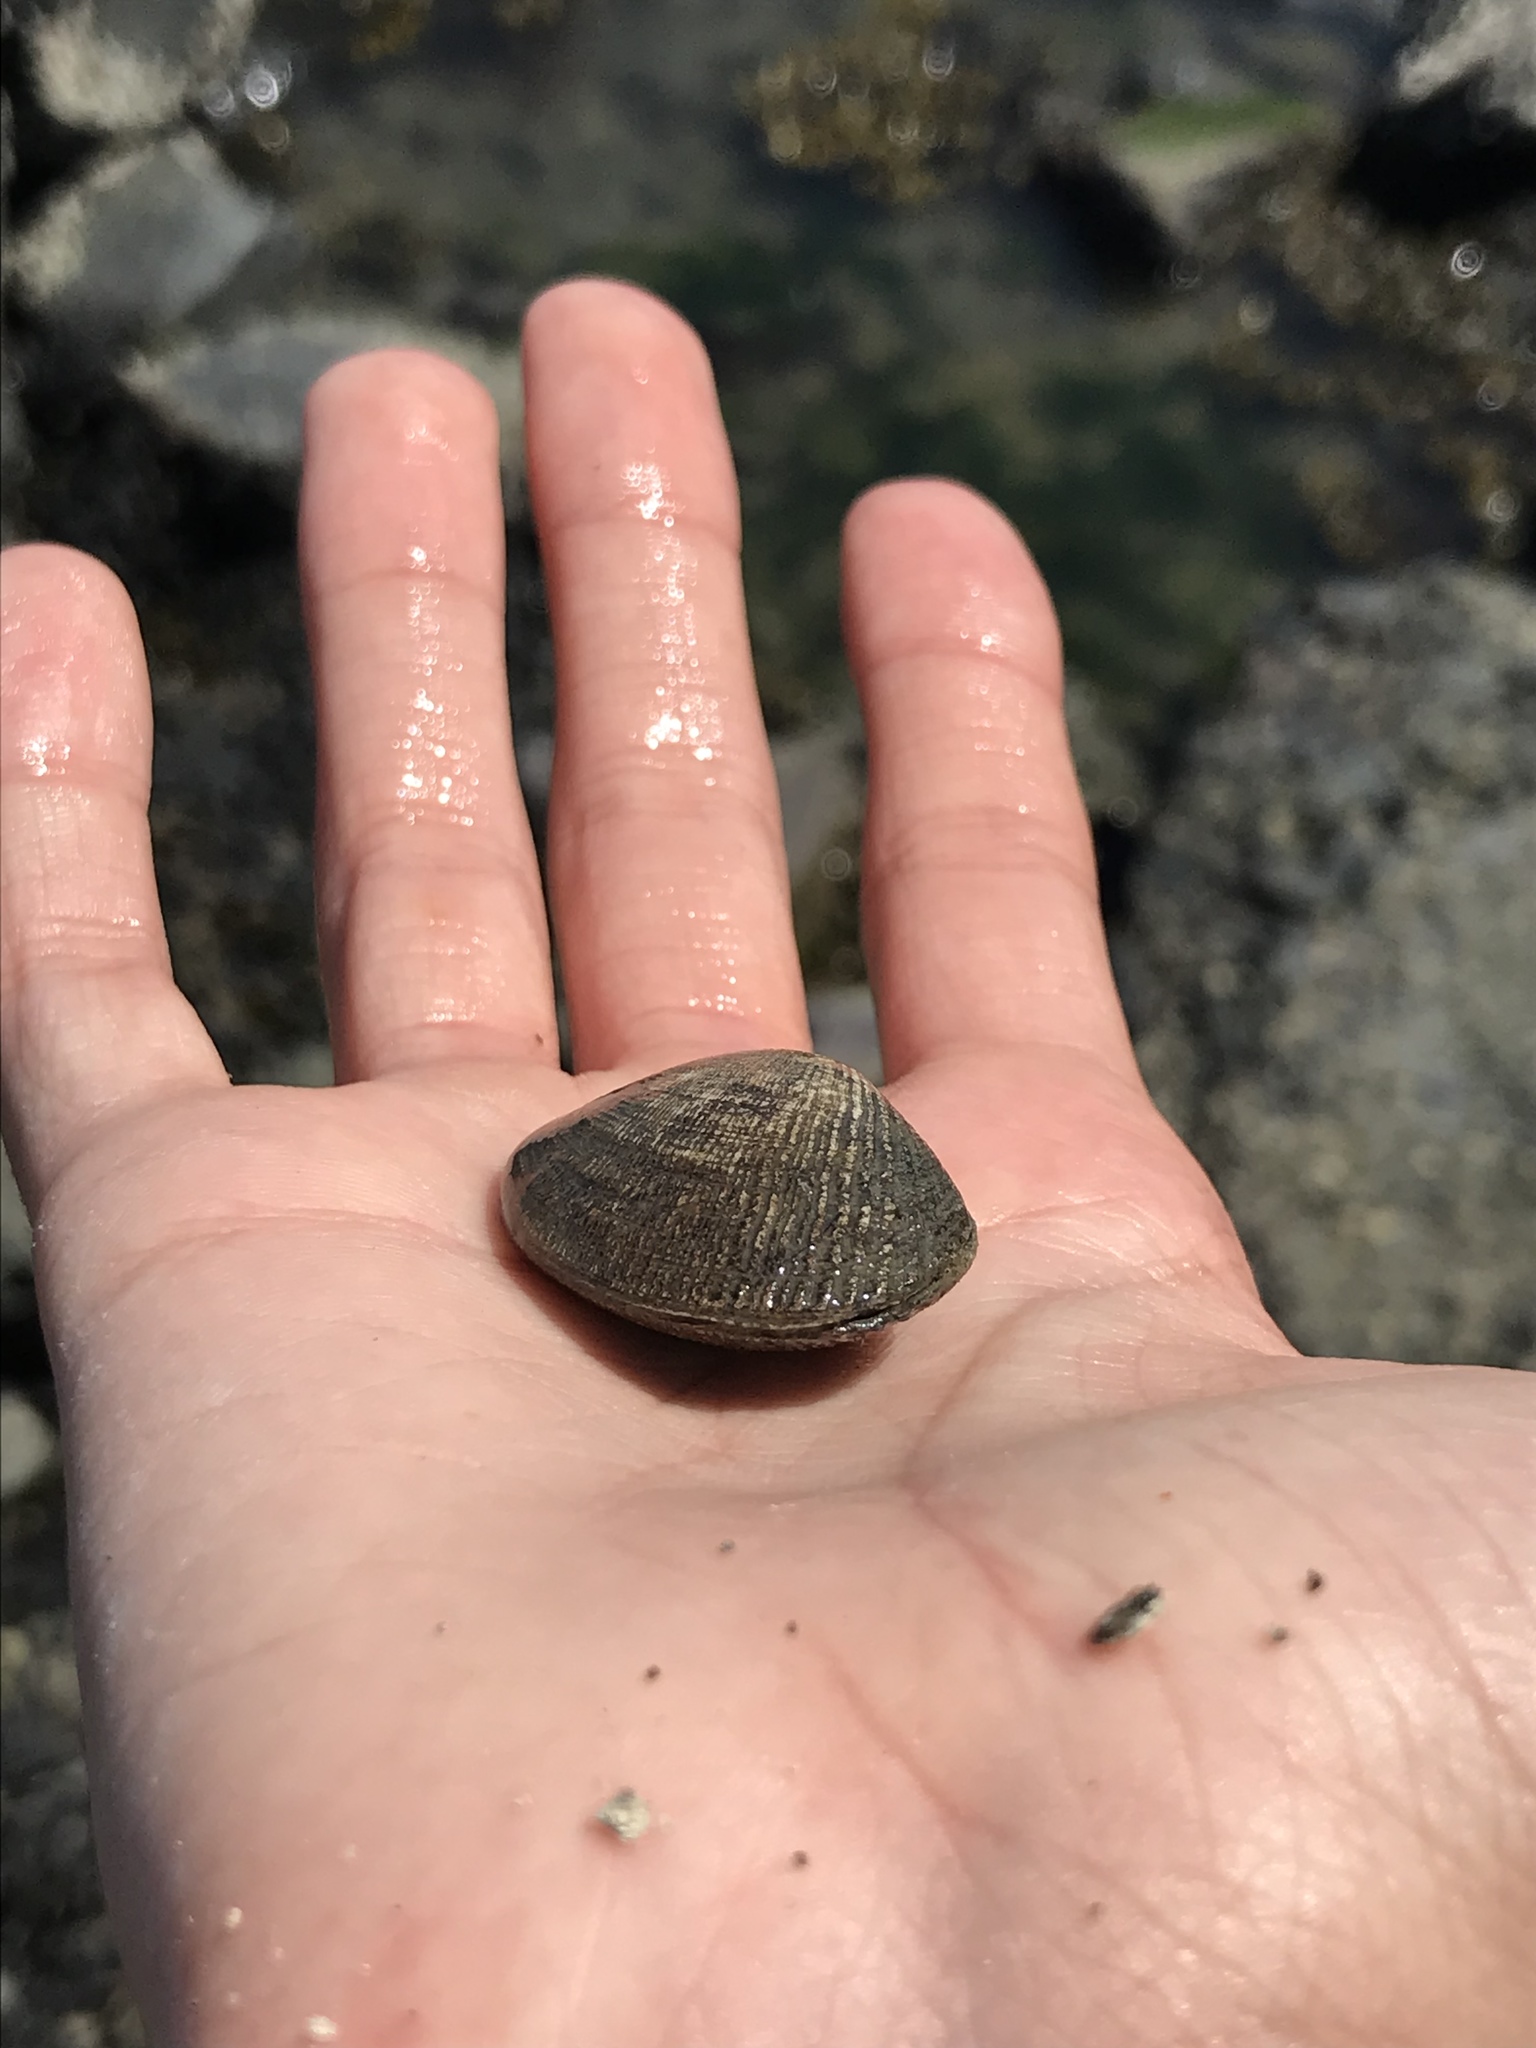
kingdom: Animalia
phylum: Mollusca
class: Bivalvia
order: Venerida
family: Veneridae
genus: Ruditapes
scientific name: Ruditapes philippinarum
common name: Manila clam
